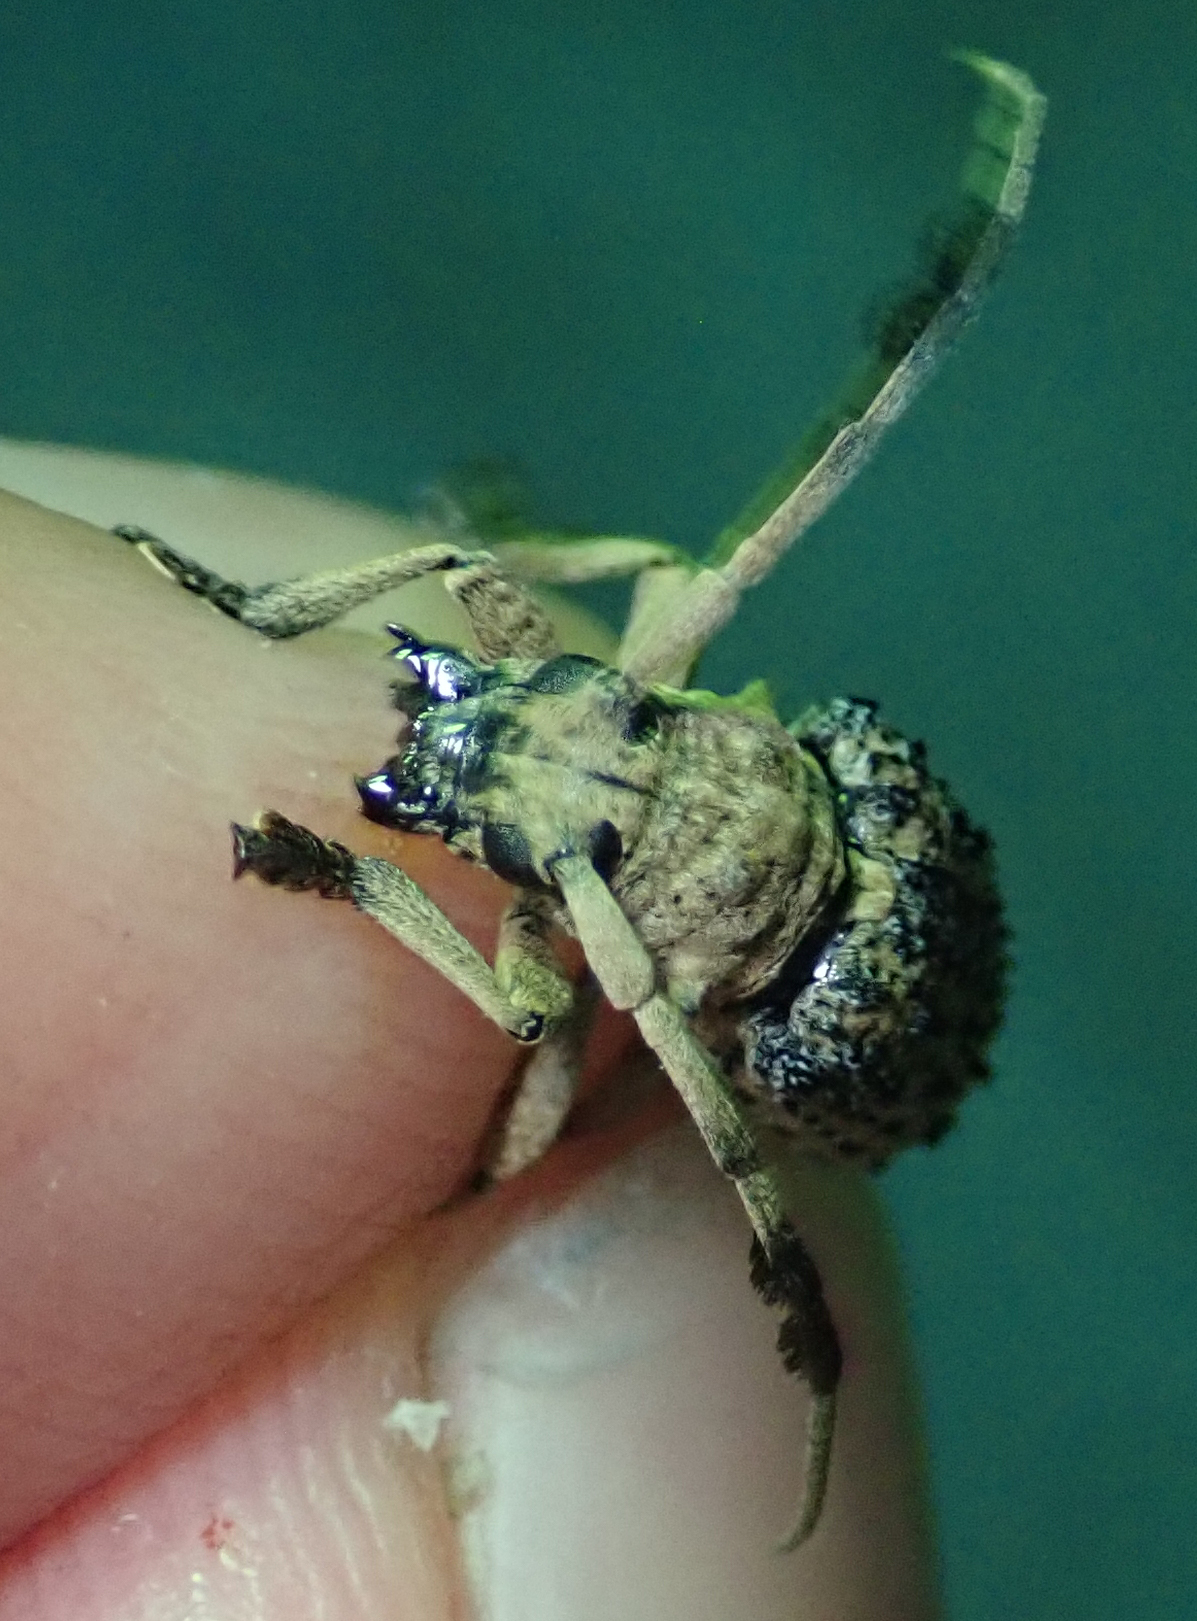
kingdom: Animalia
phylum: Arthropoda
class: Insecta
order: Coleoptera
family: Cerambycidae
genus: Gasponia
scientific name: Gasponia gaujani
